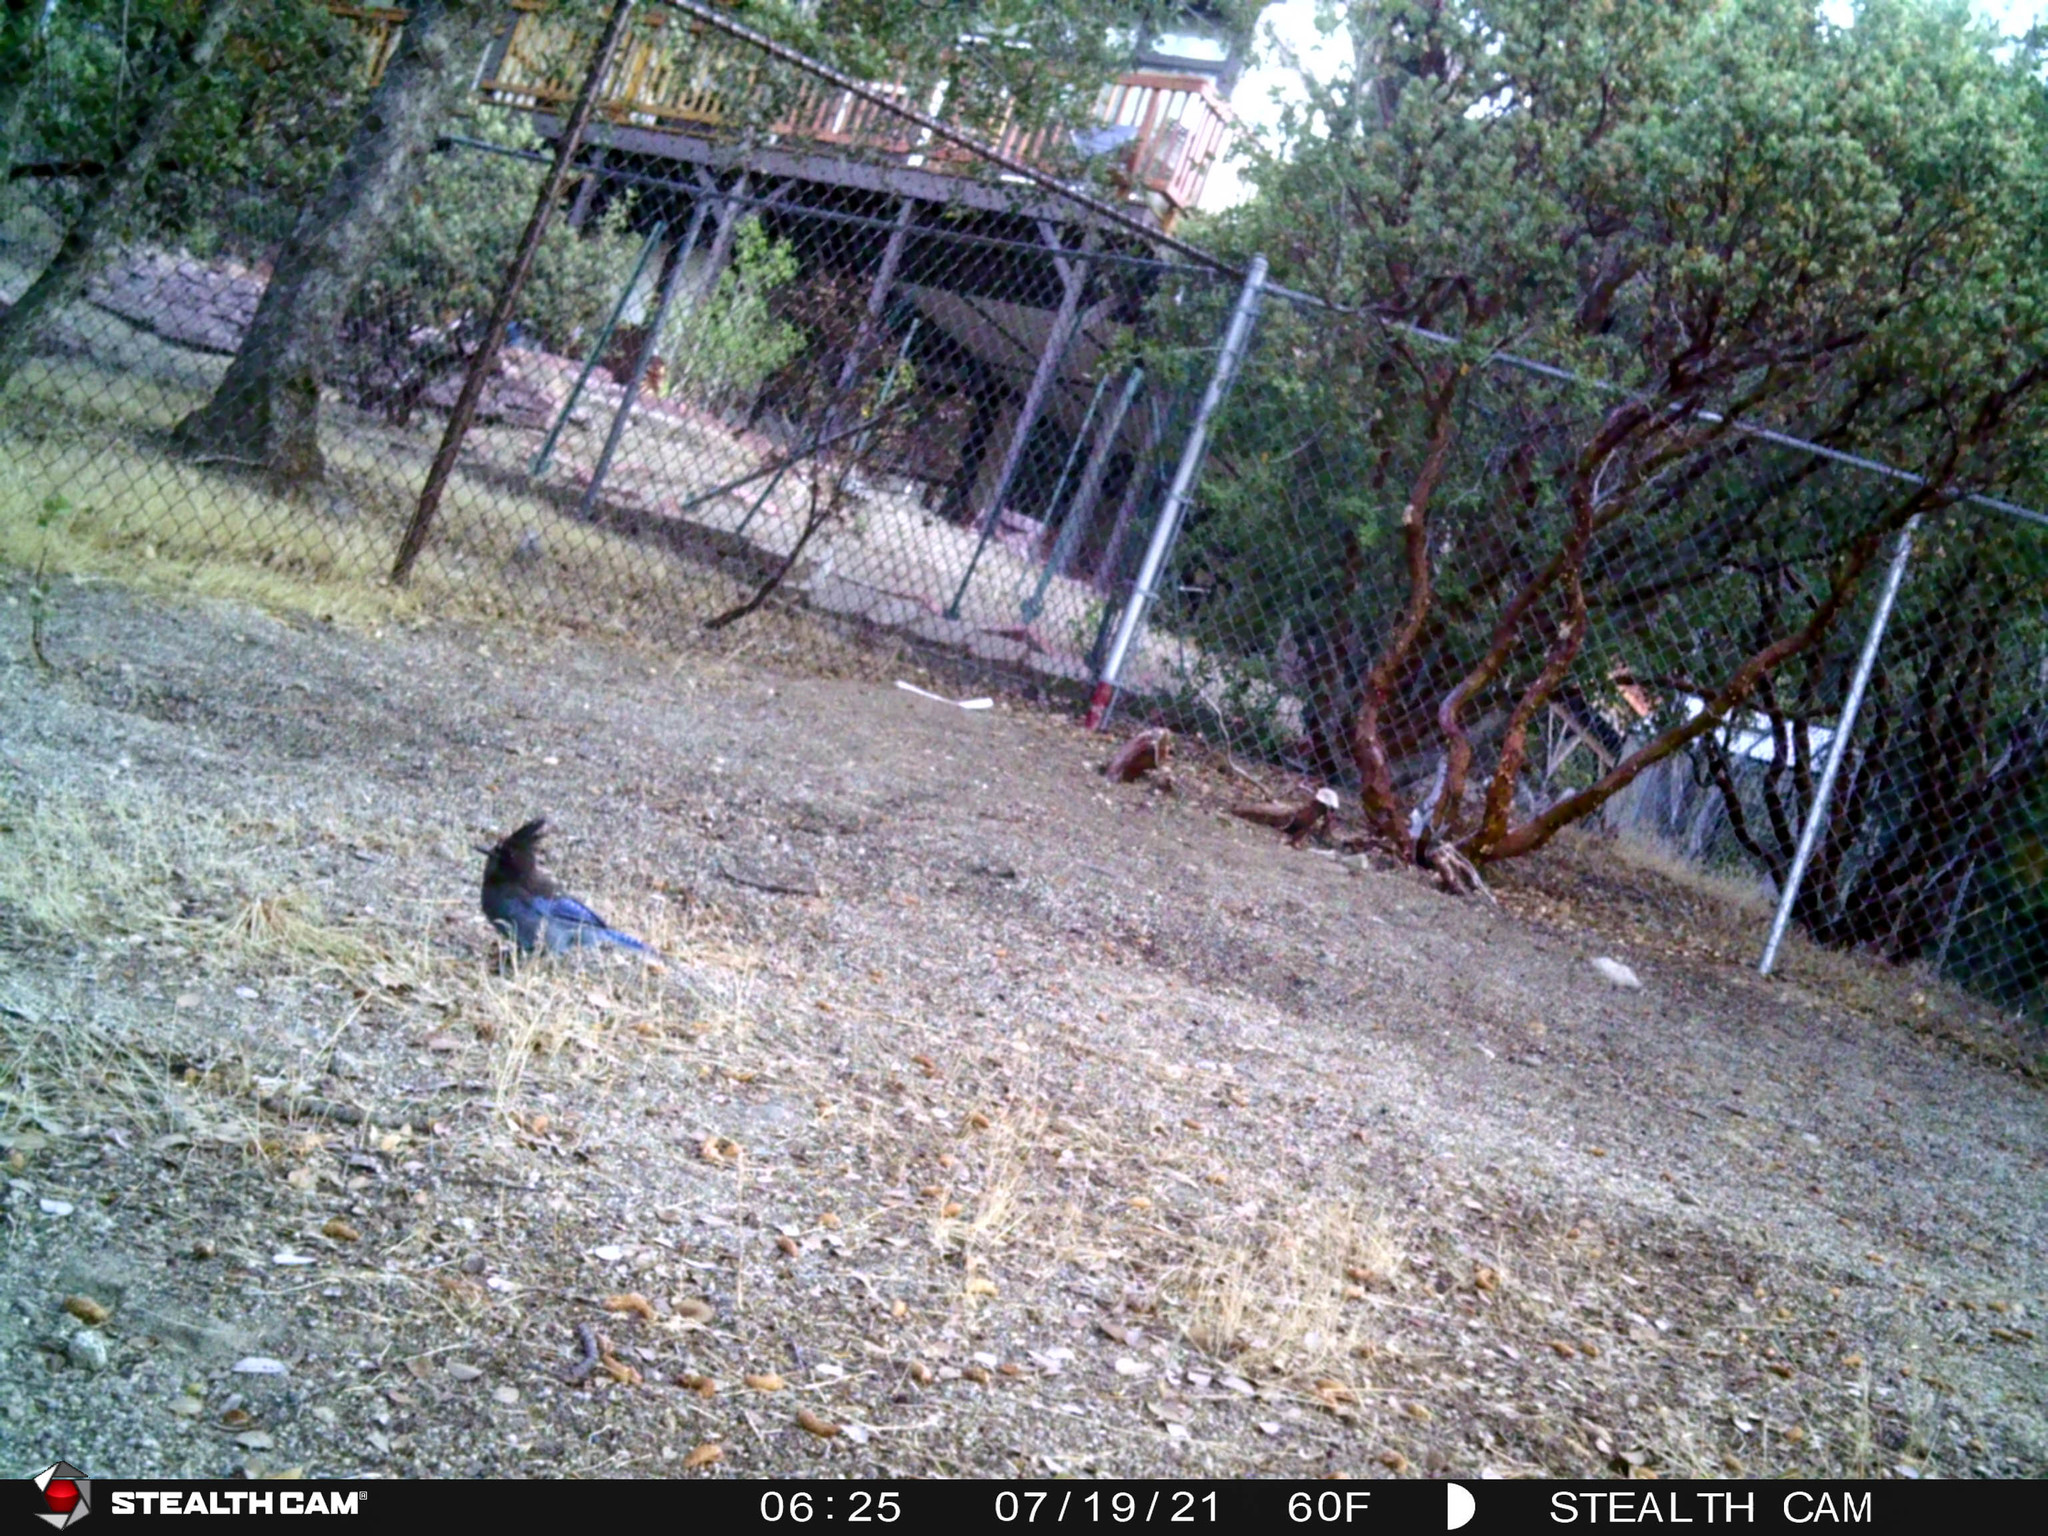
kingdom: Animalia
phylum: Chordata
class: Aves
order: Passeriformes
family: Corvidae
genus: Cyanocitta
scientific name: Cyanocitta stelleri
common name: Steller's jay
